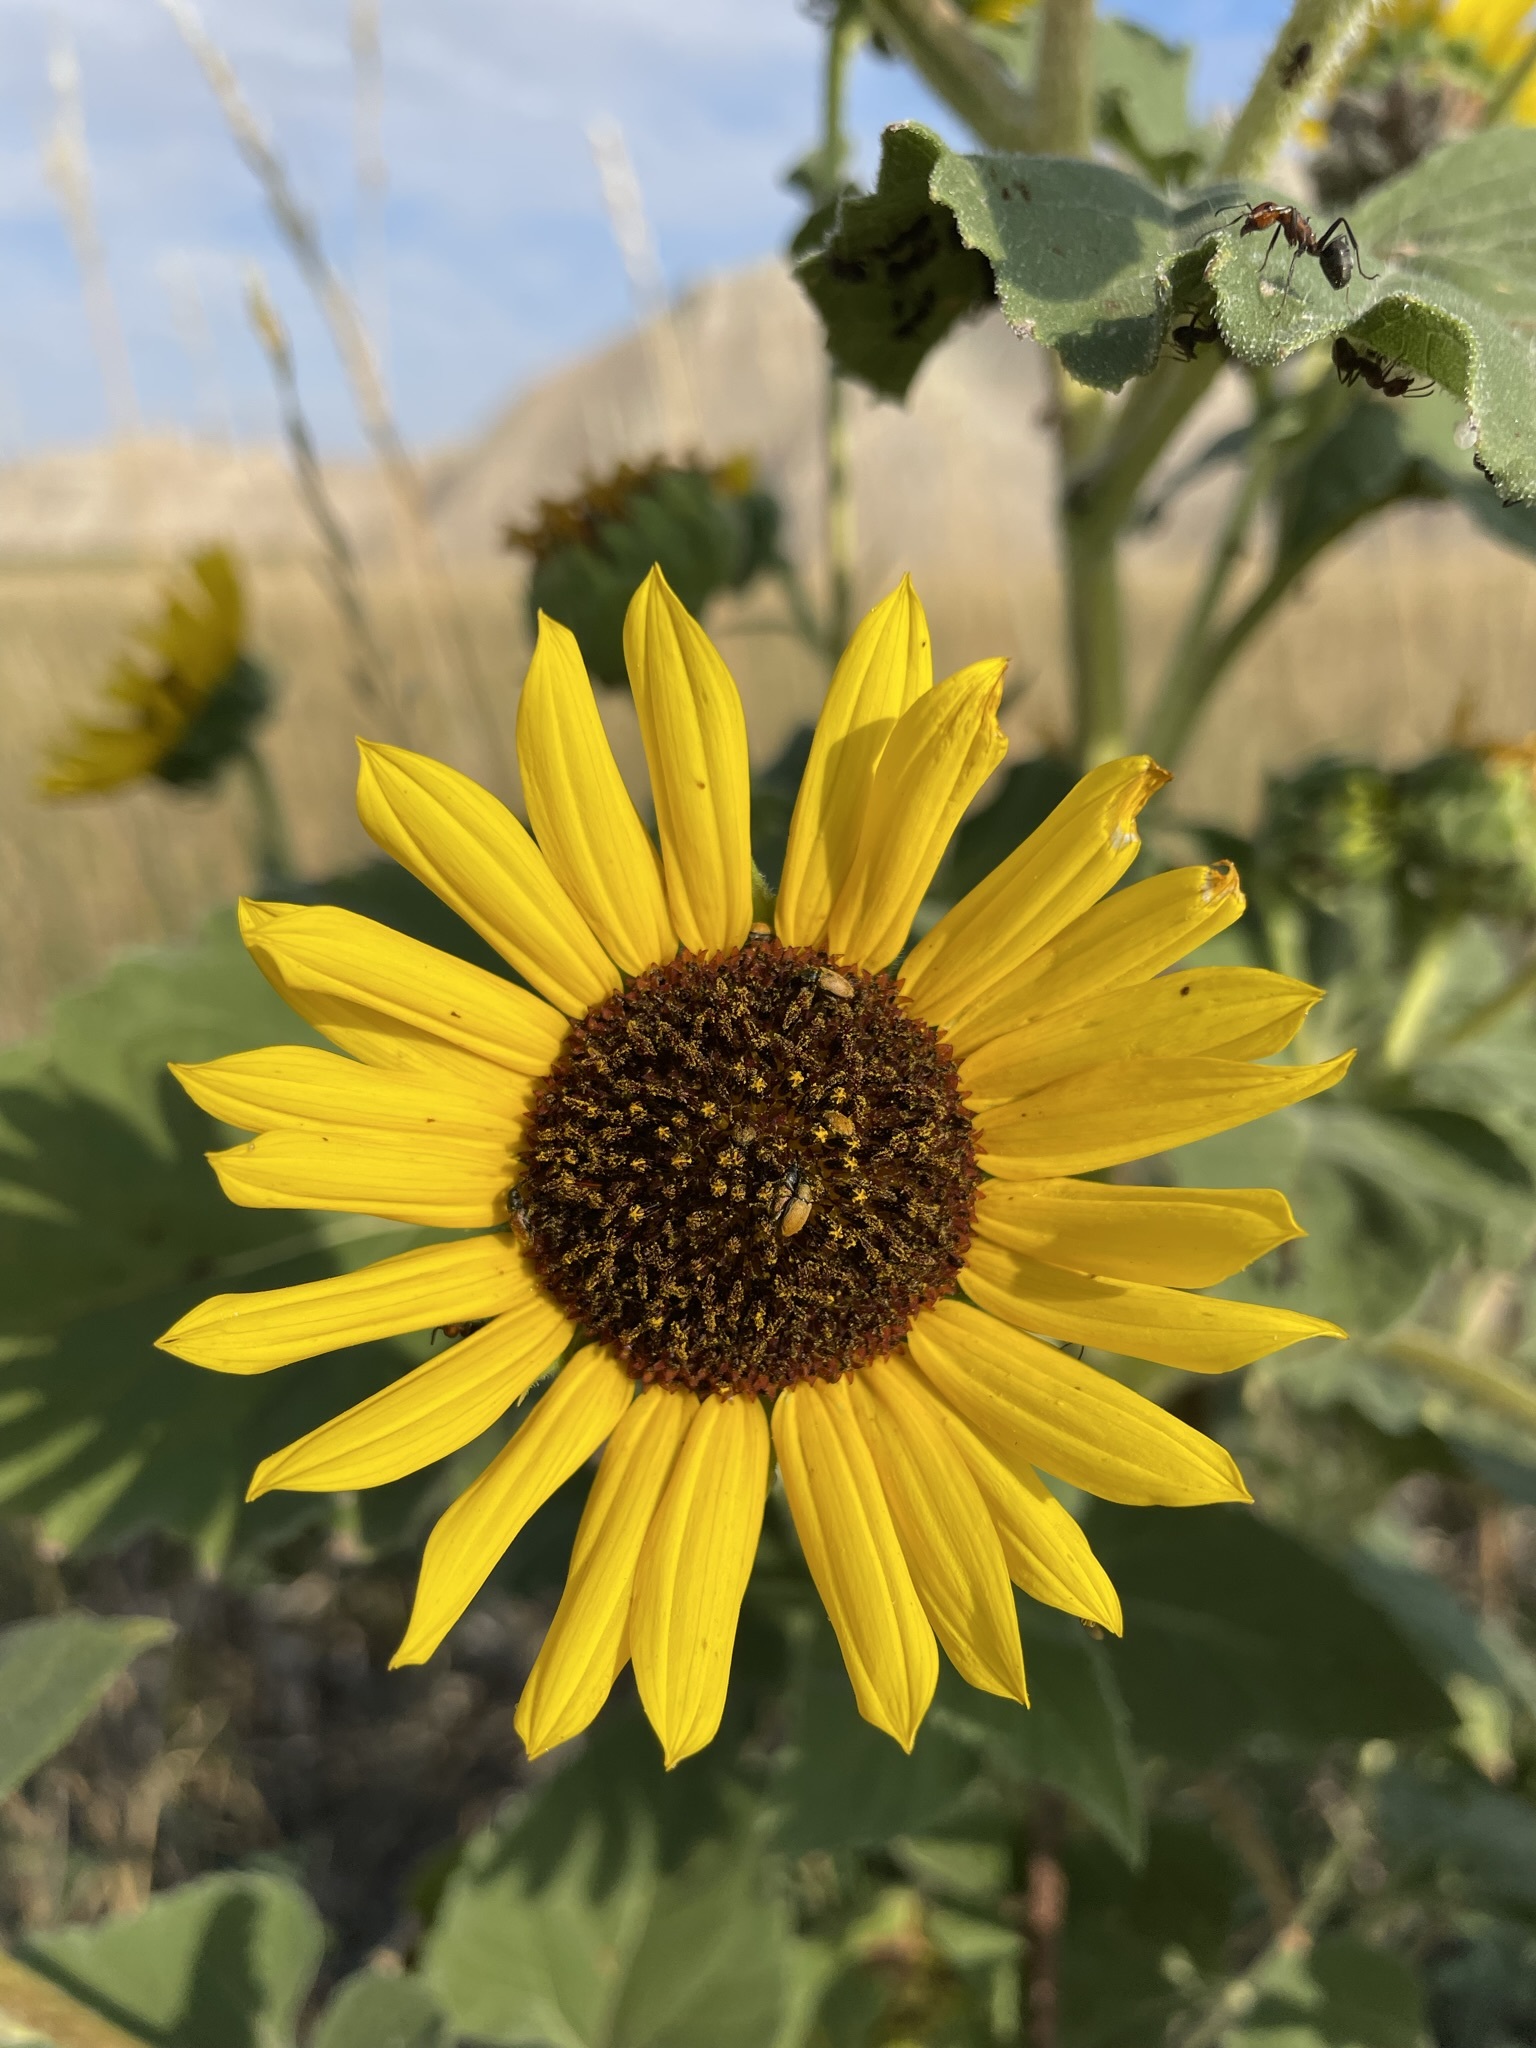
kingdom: Plantae
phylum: Tracheophyta
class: Magnoliopsida
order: Asterales
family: Asteraceae
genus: Helianthus
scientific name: Helianthus annuus
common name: Sunflower
